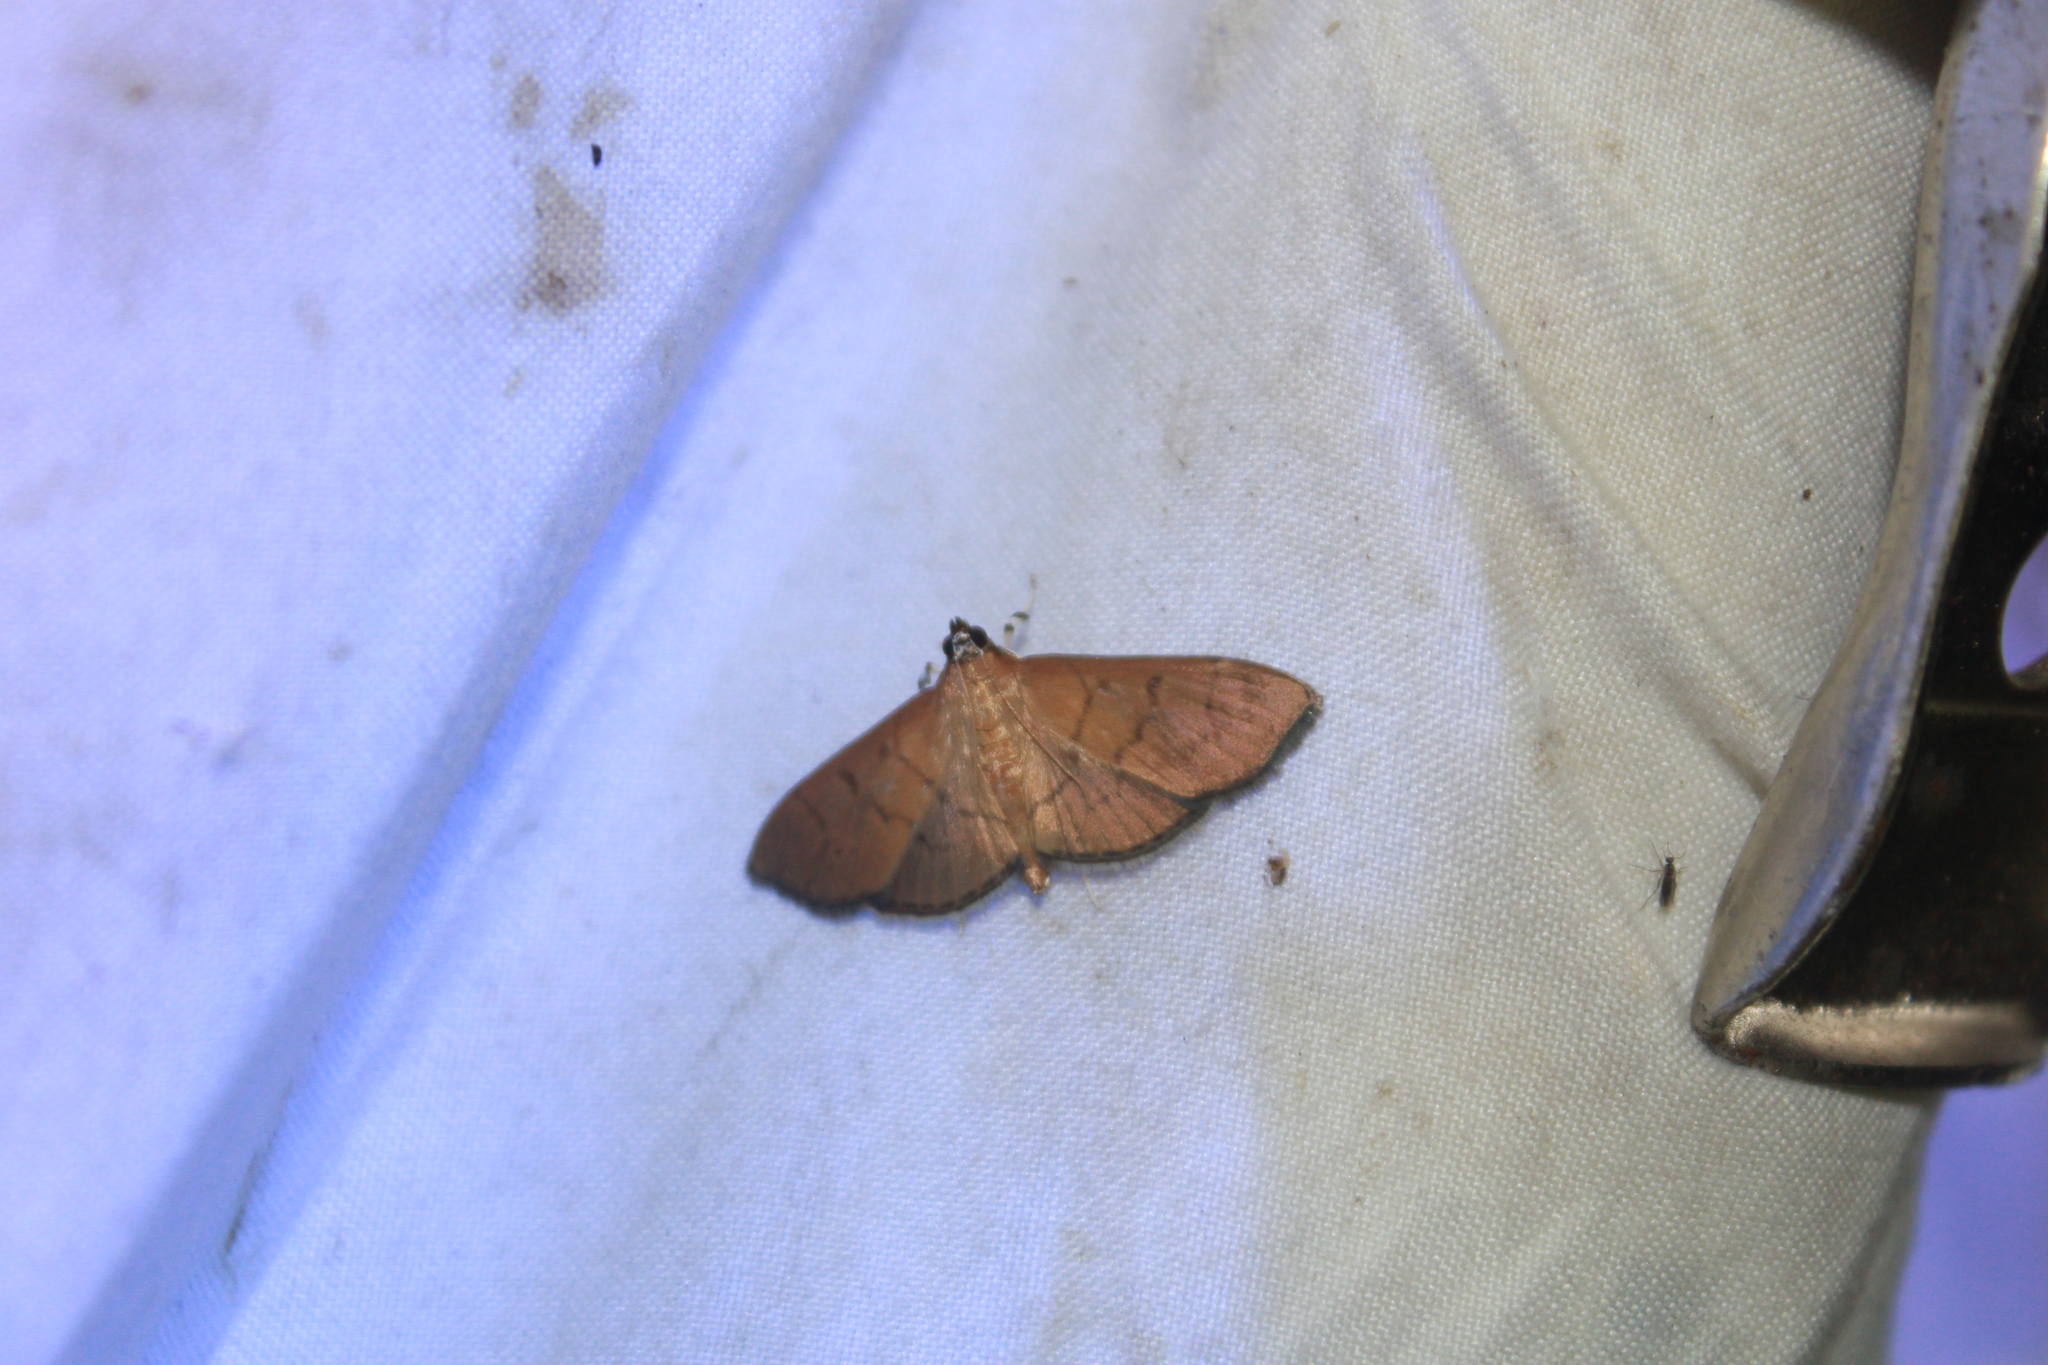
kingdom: Animalia
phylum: Arthropoda
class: Insecta
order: Lepidoptera
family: Crambidae
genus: Omiodes
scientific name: Omiodes indicata
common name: Bean-leaf webworm moth
